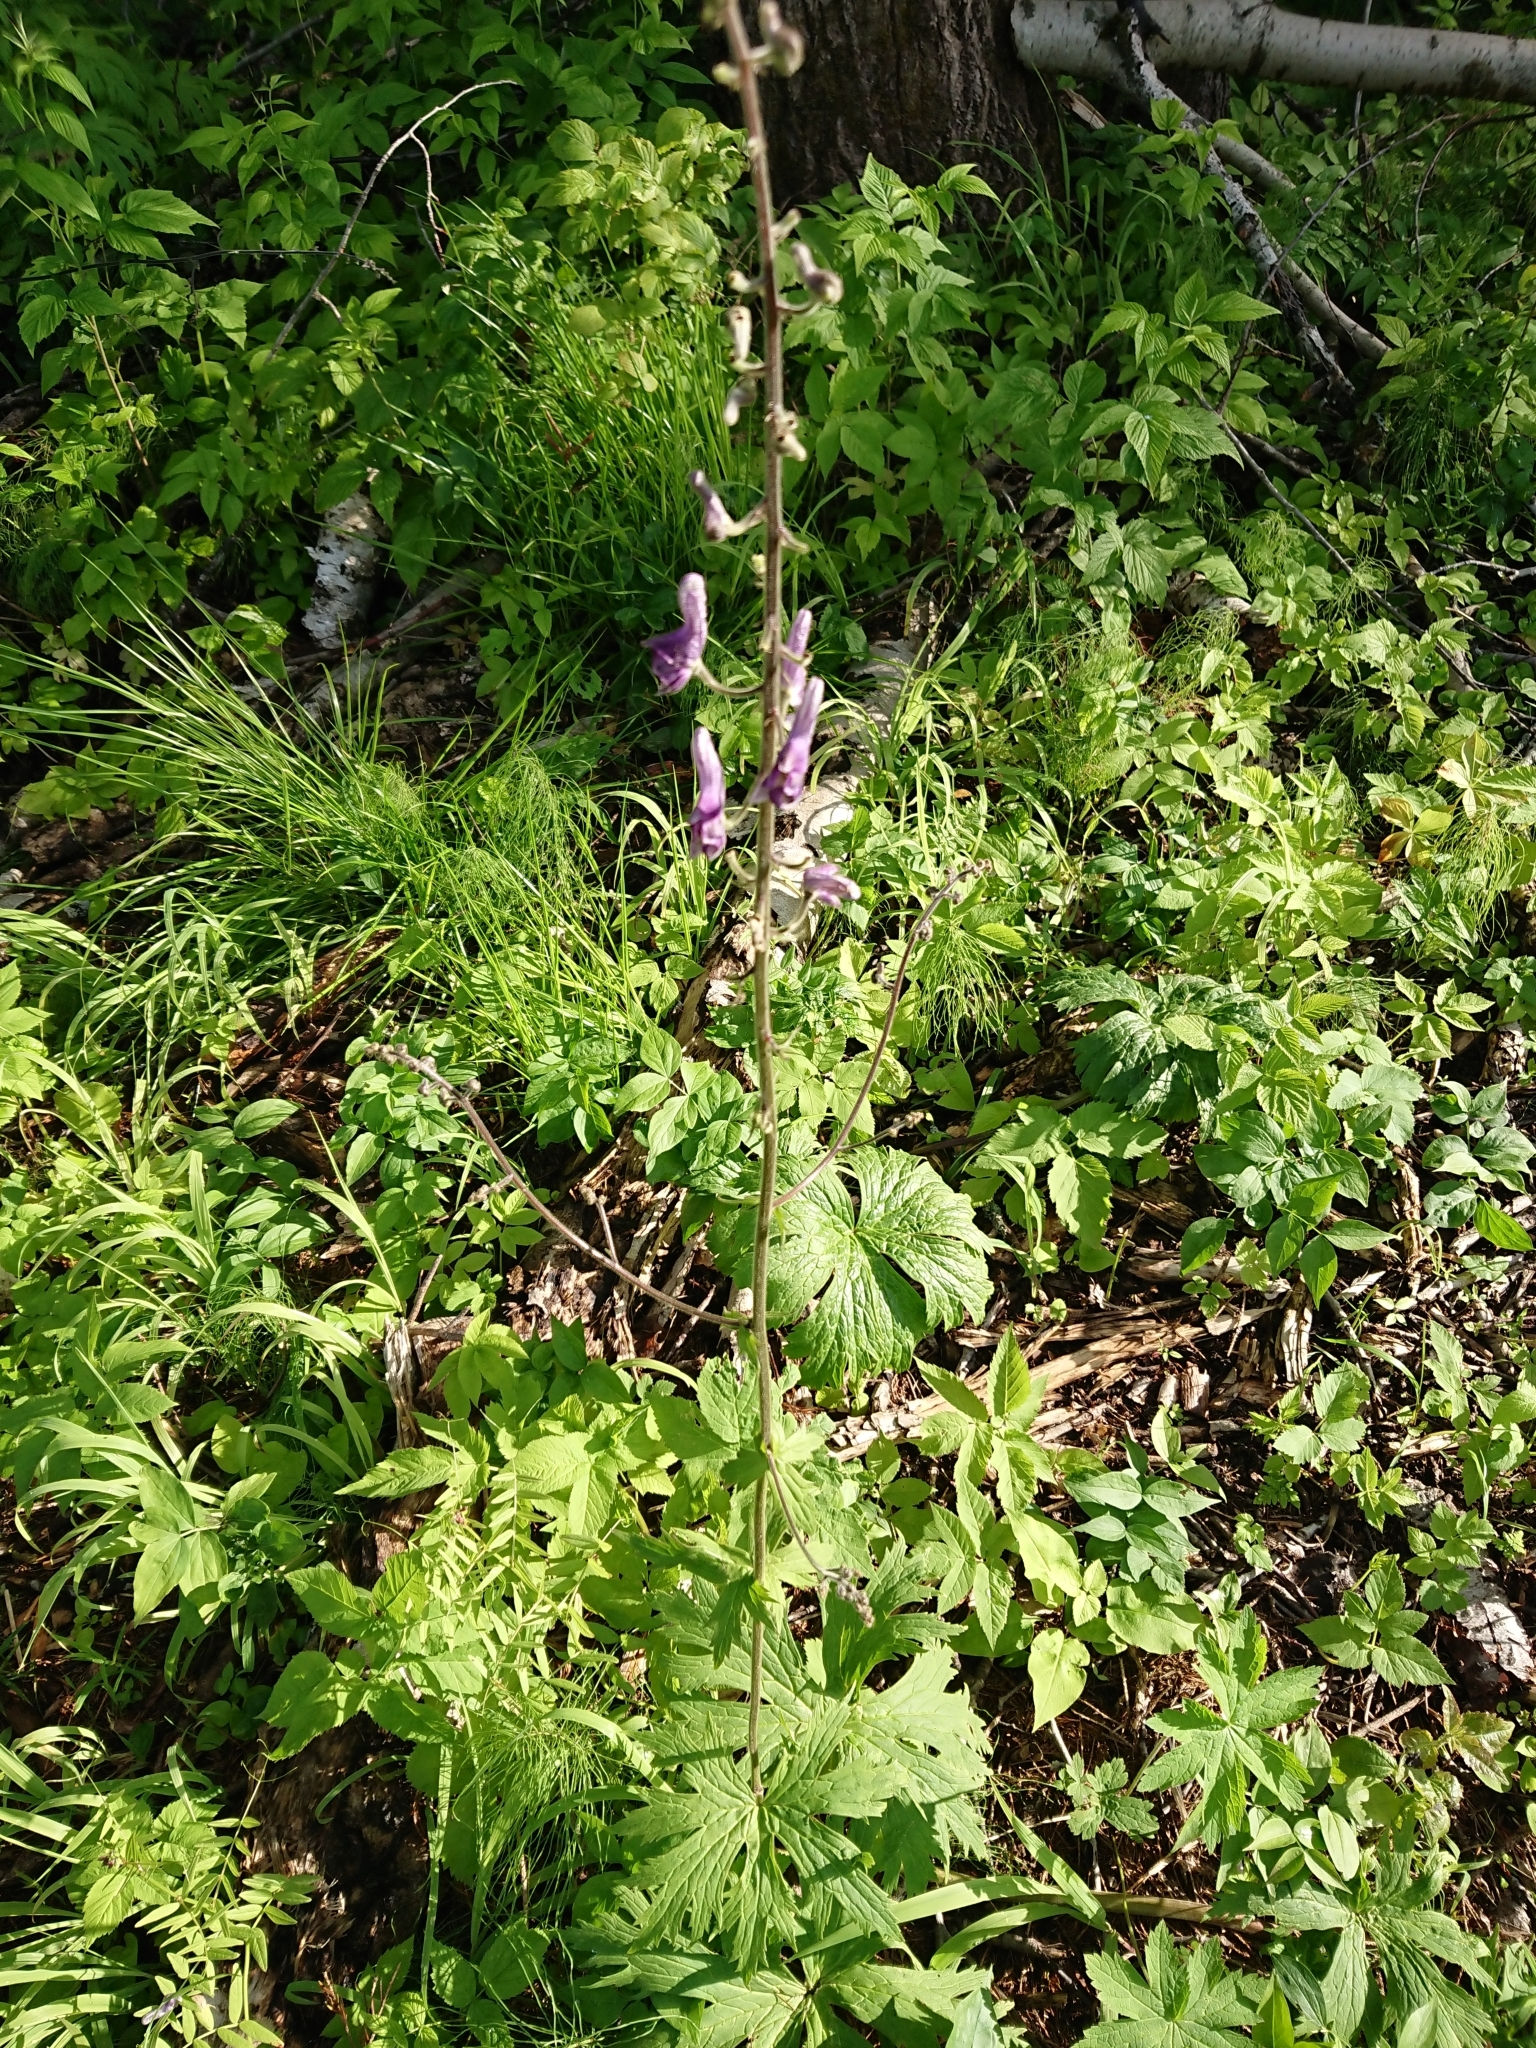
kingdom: Plantae
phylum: Tracheophyta
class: Magnoliopsida
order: Ranunculales
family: Ranunculaceae
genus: Aconitum
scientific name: Aconitum septentrionale
